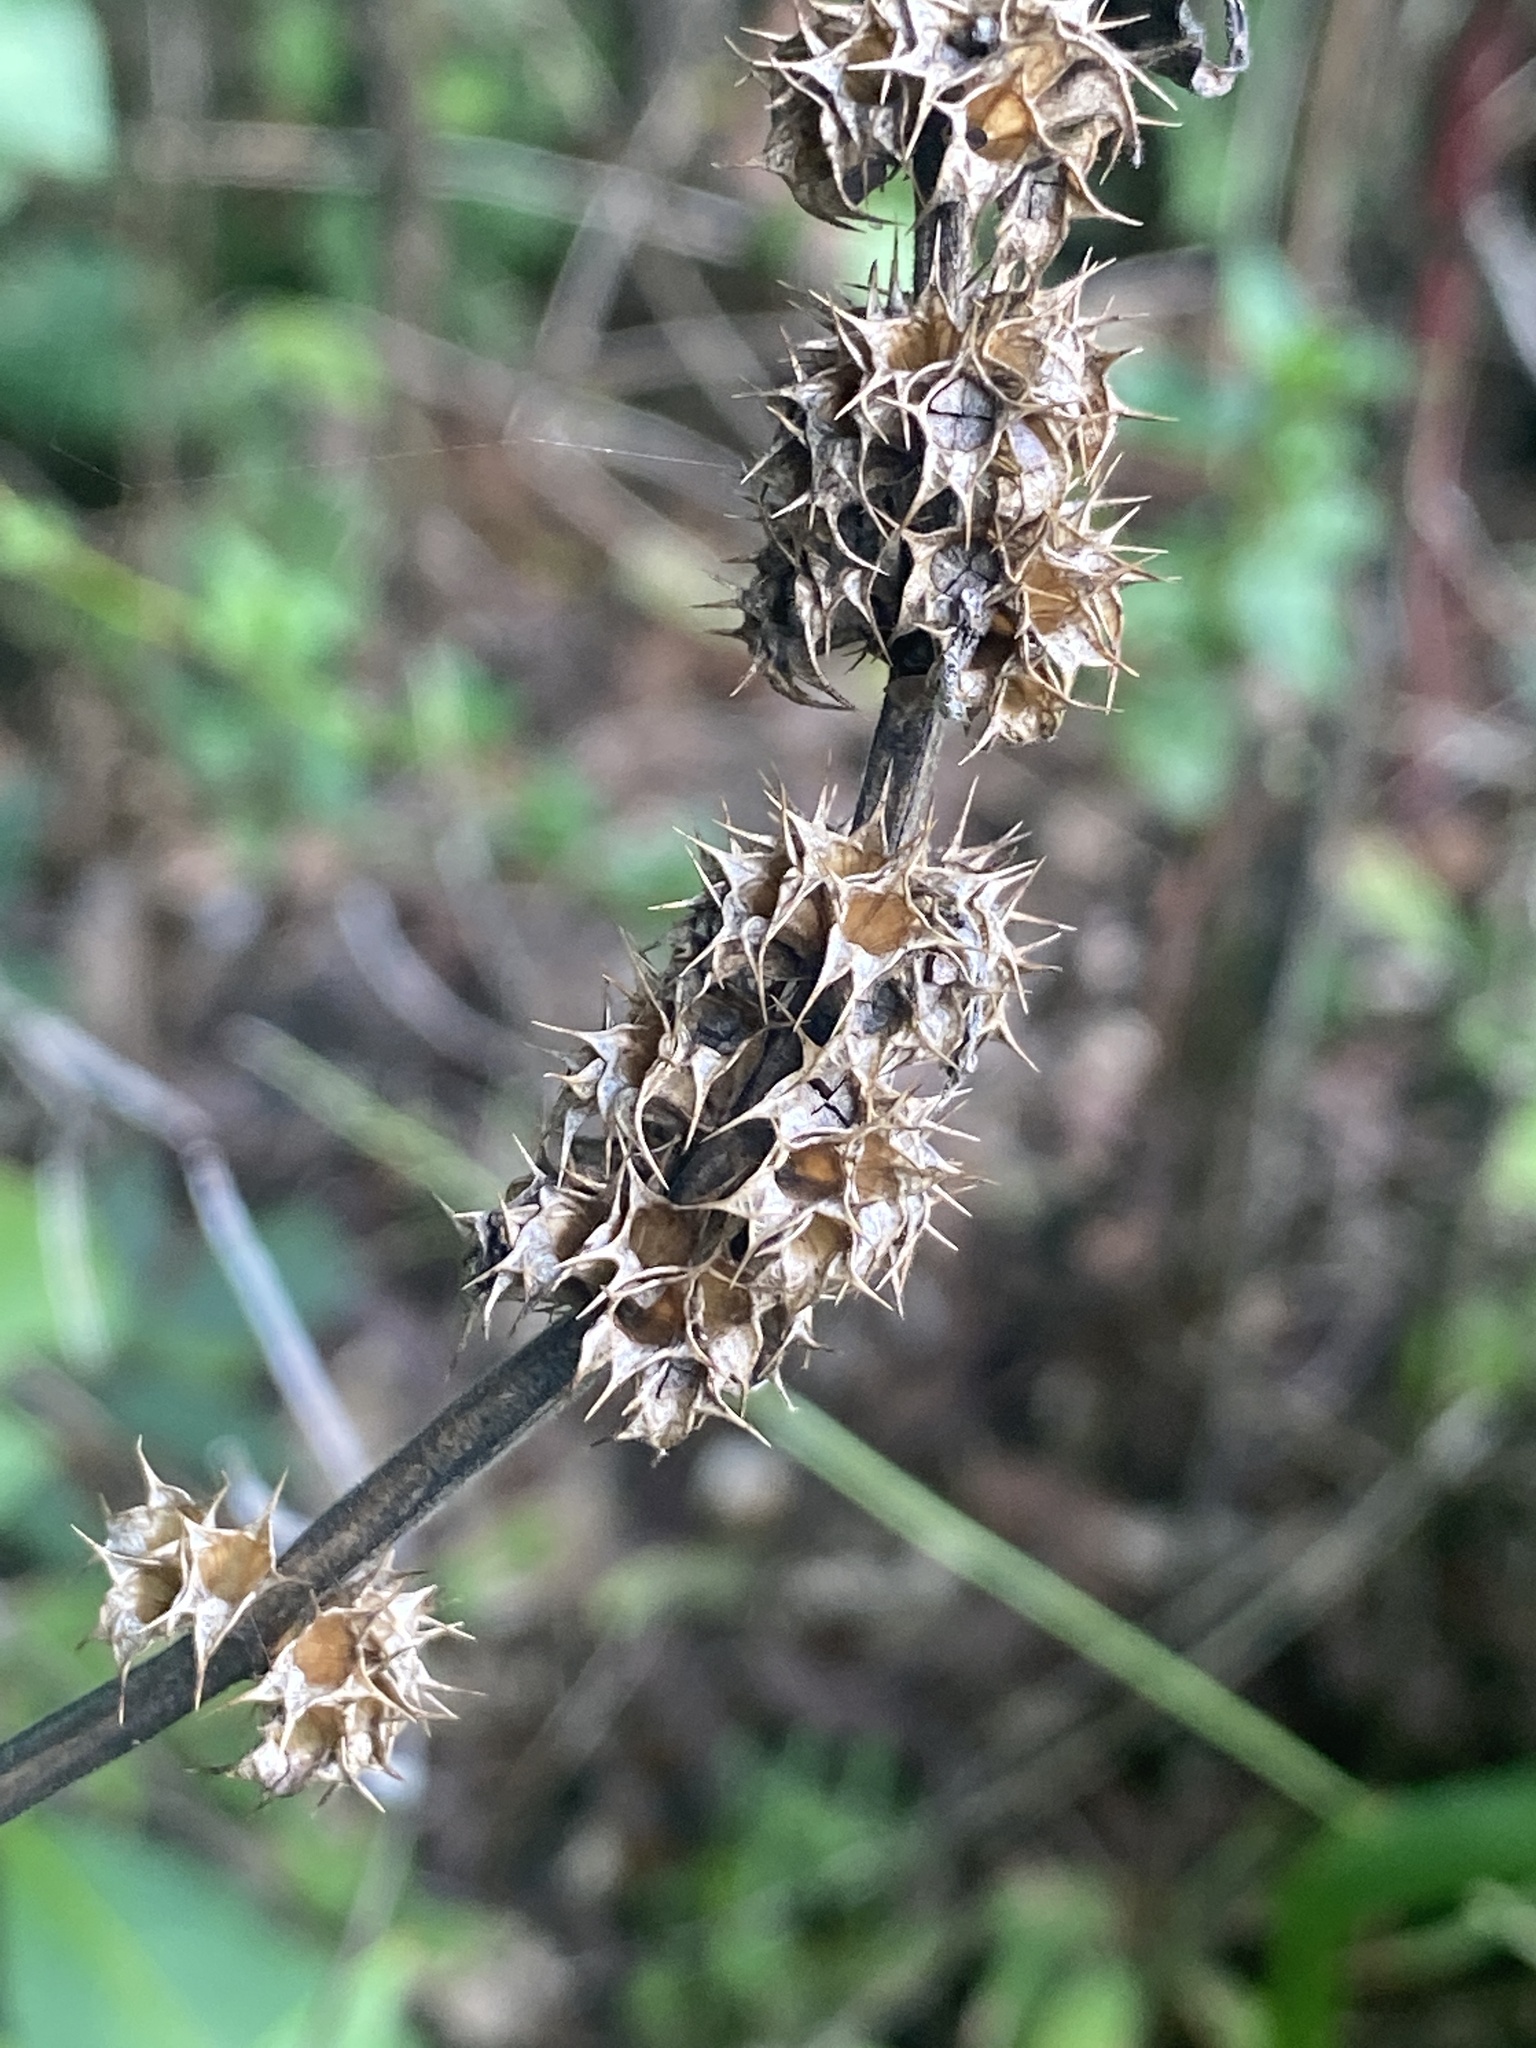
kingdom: Plantae
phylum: Tracheophyta
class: Magnoliopsida
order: Lamiales
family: Lamiaceae
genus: Leonurus
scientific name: Leonurus cardiaca
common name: Motherwort
